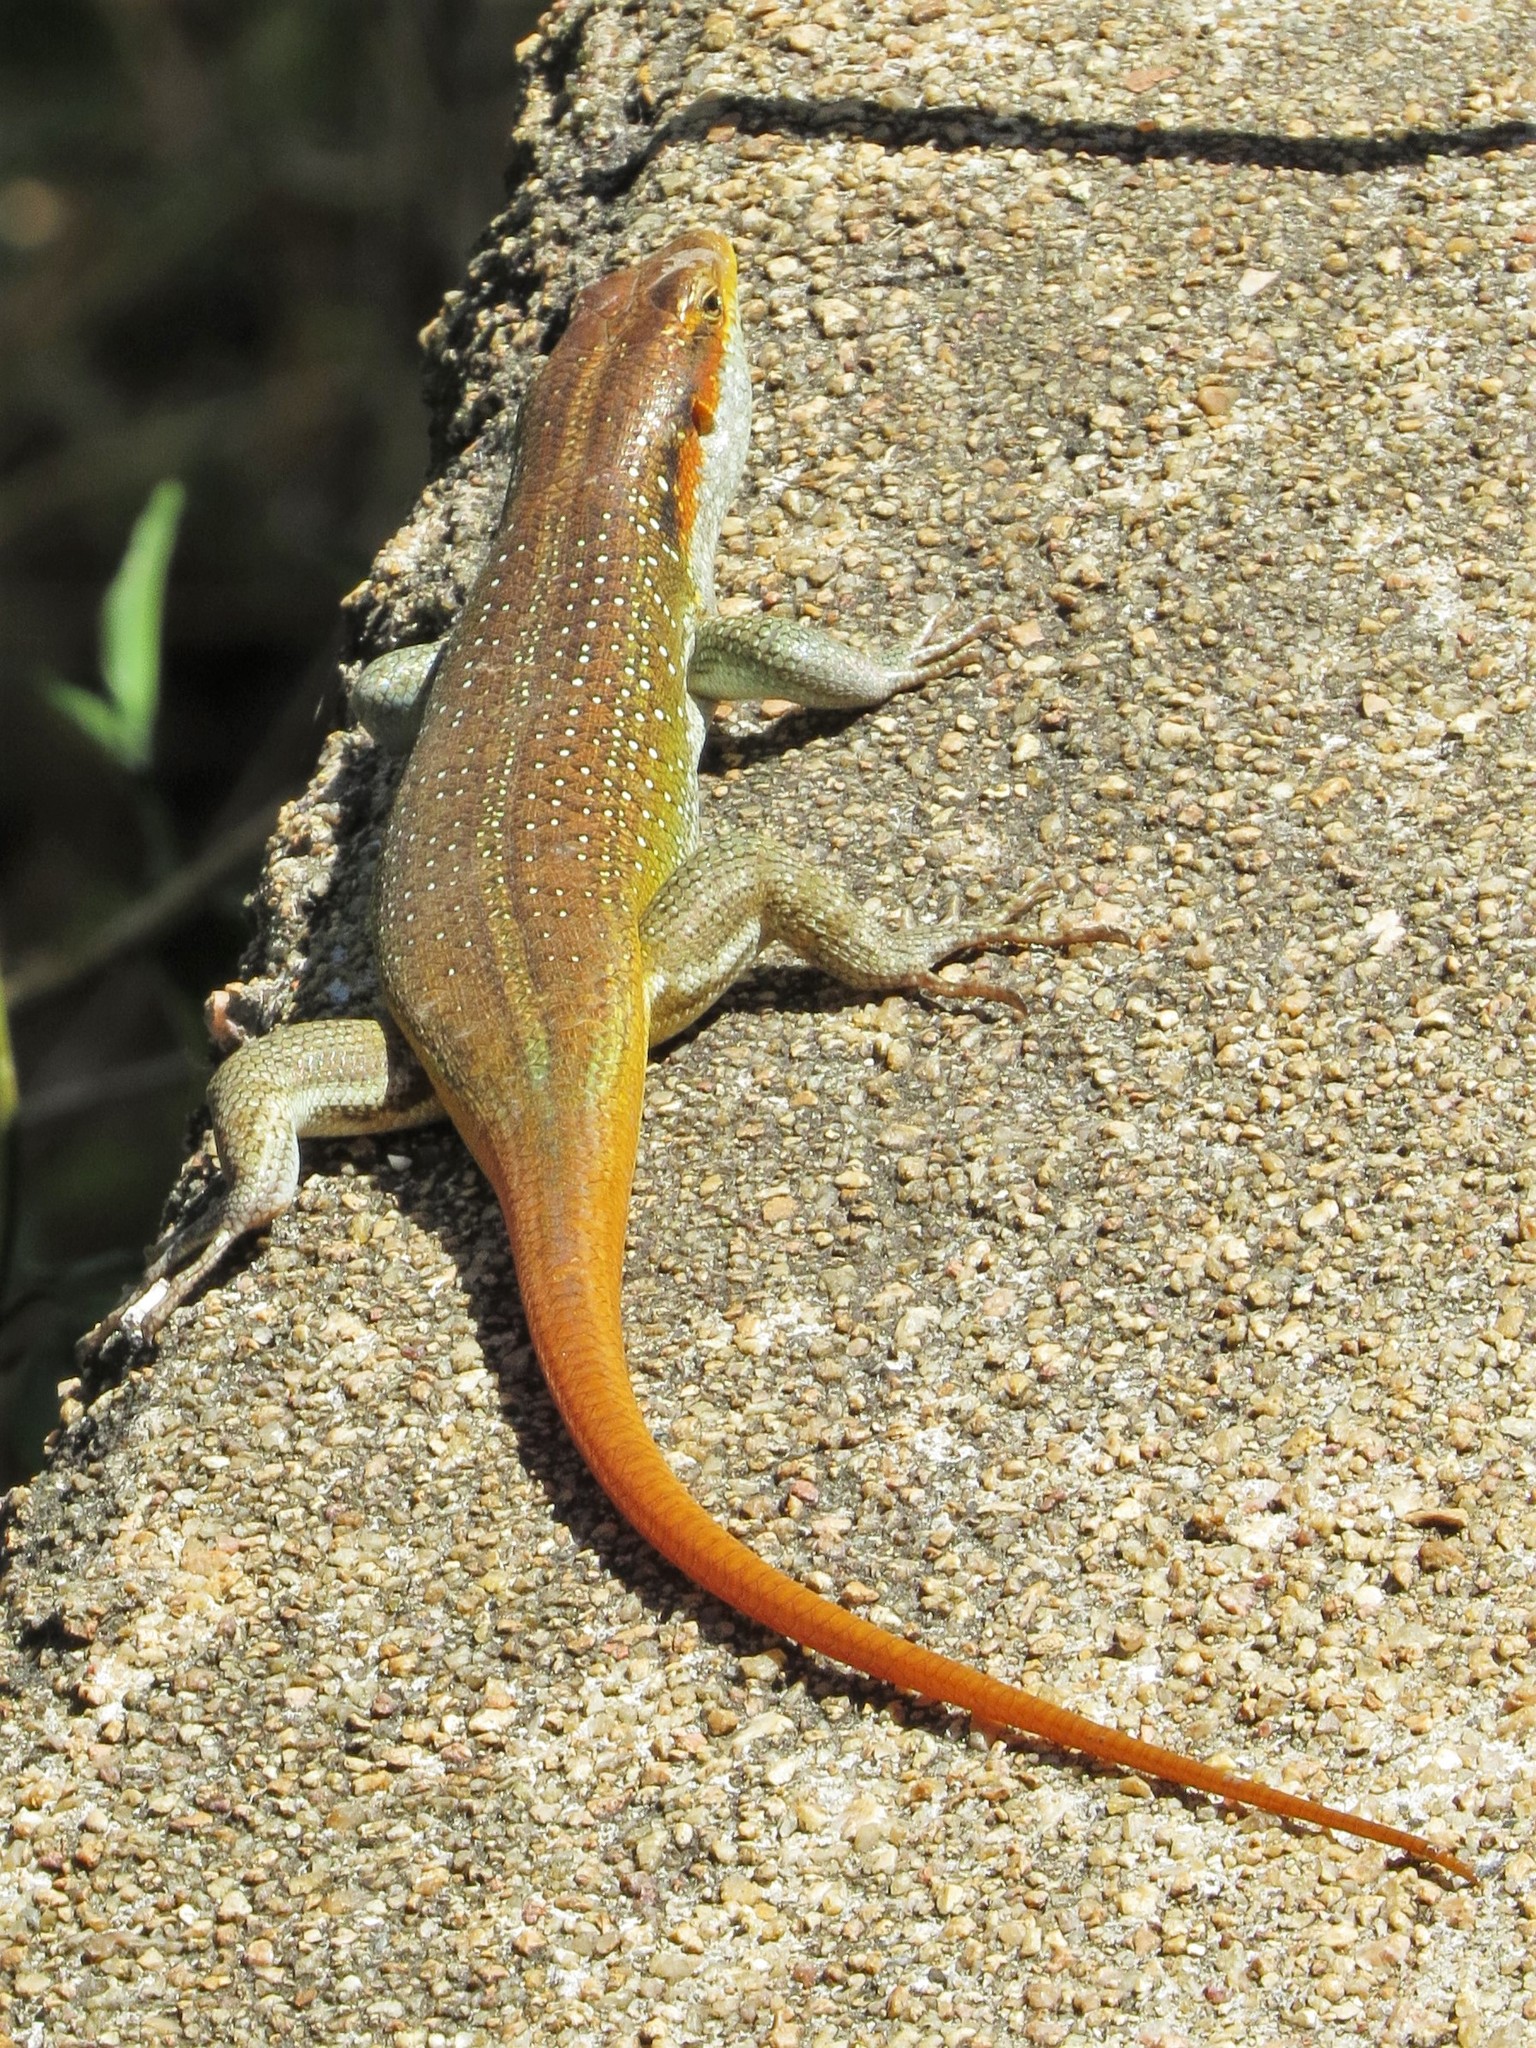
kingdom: Animalia
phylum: Chordata
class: Squamata
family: Scincidae
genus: Trachylepis
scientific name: Trachylepis margaritifera
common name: Rainbow skink
